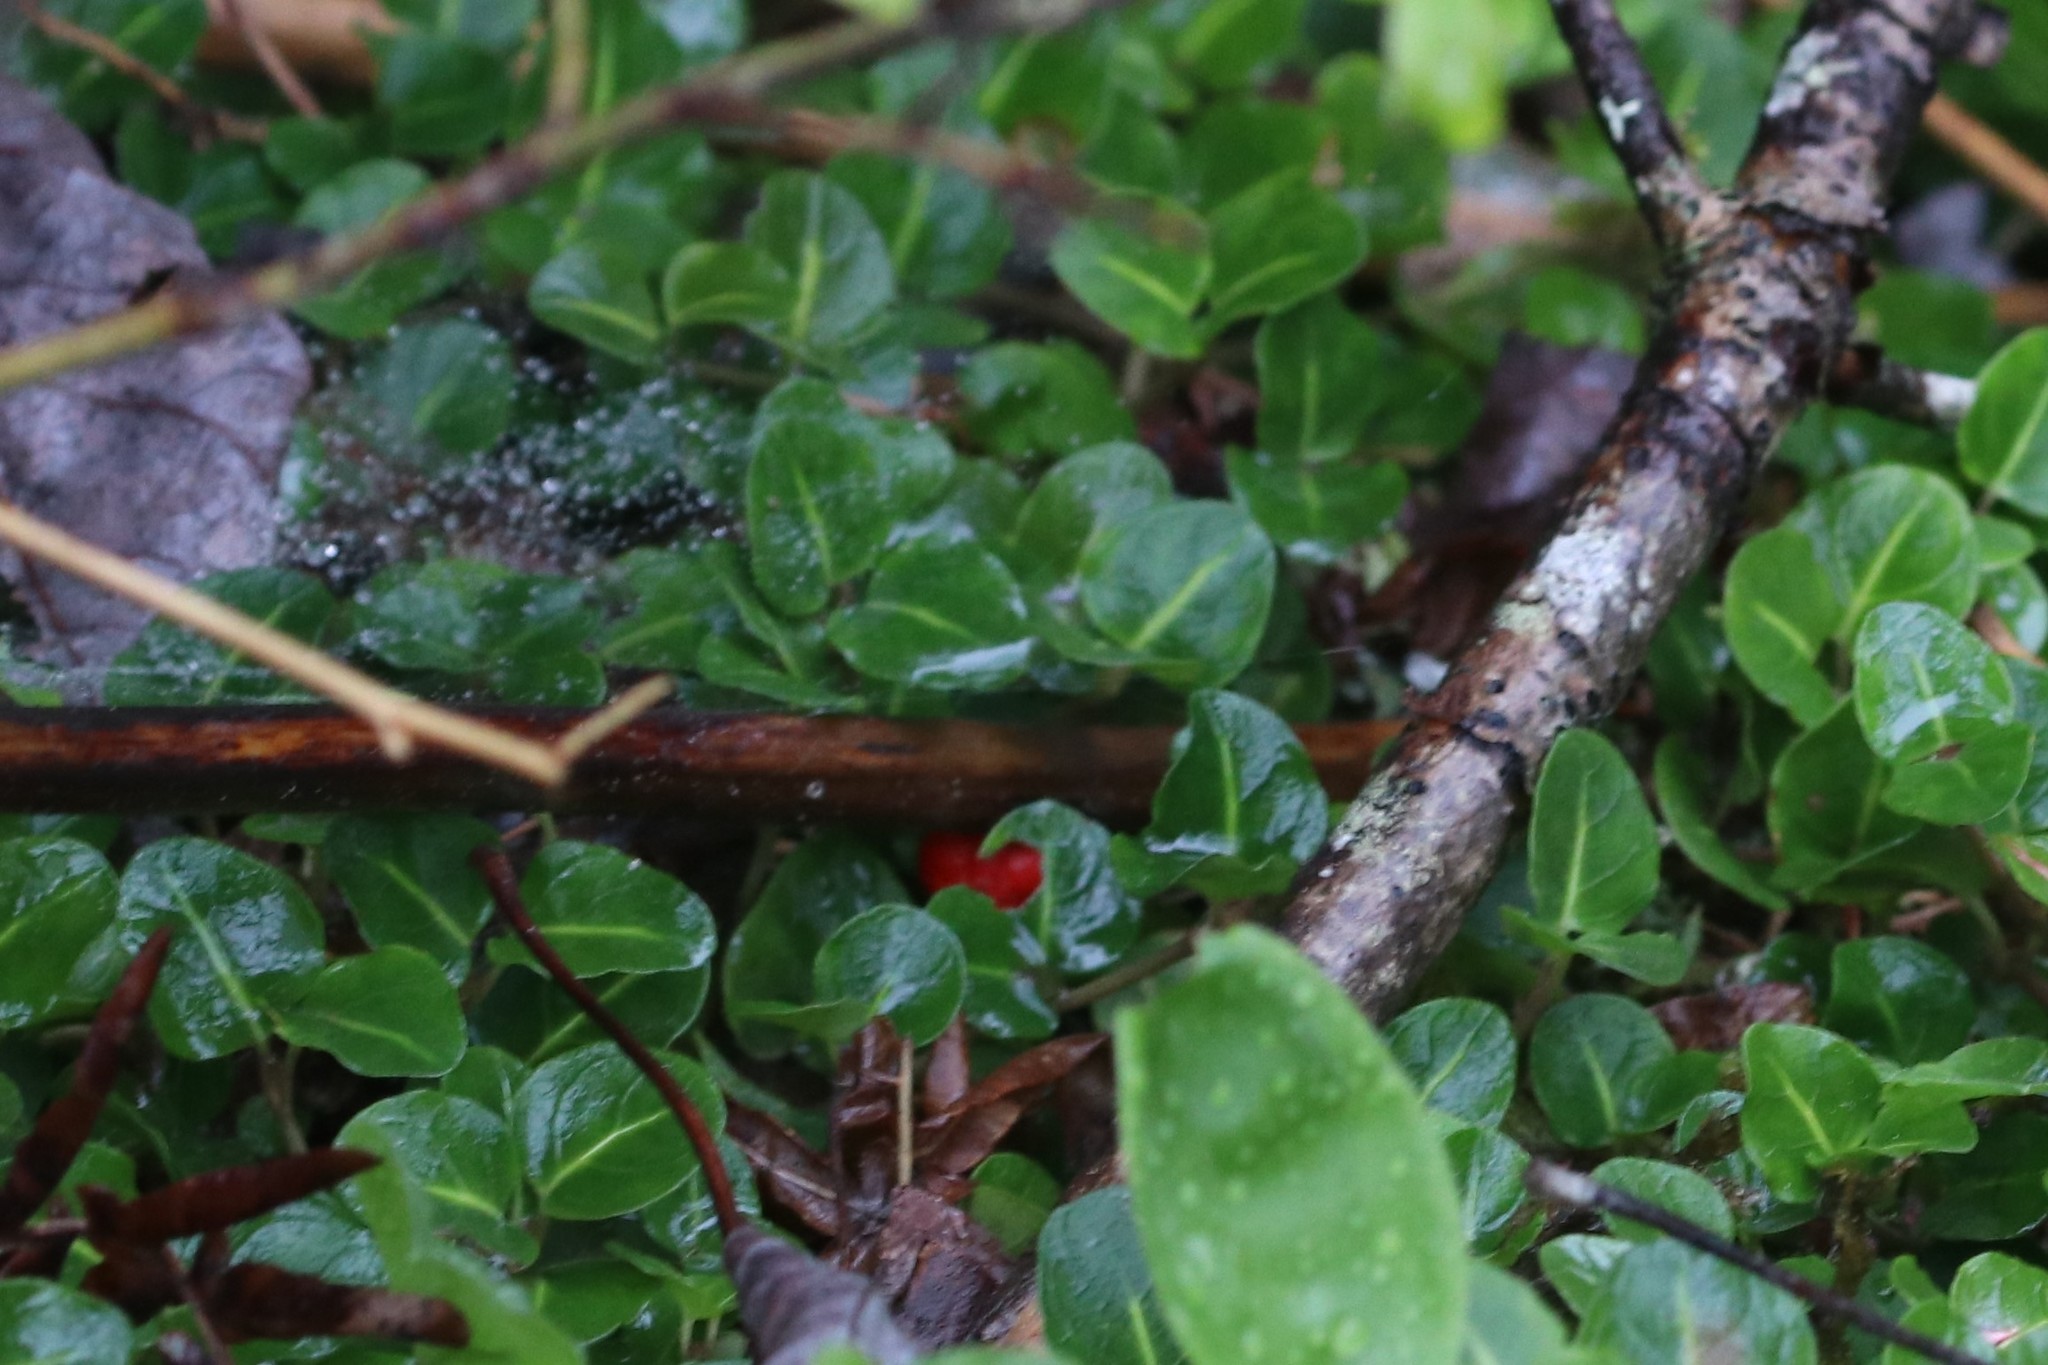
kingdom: Plantae
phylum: Tracheophyta
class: Magnoliopsida
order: Gentianales
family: Rubiaceae
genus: Mitchella
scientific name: Mitchella repens
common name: Partridge-berry
